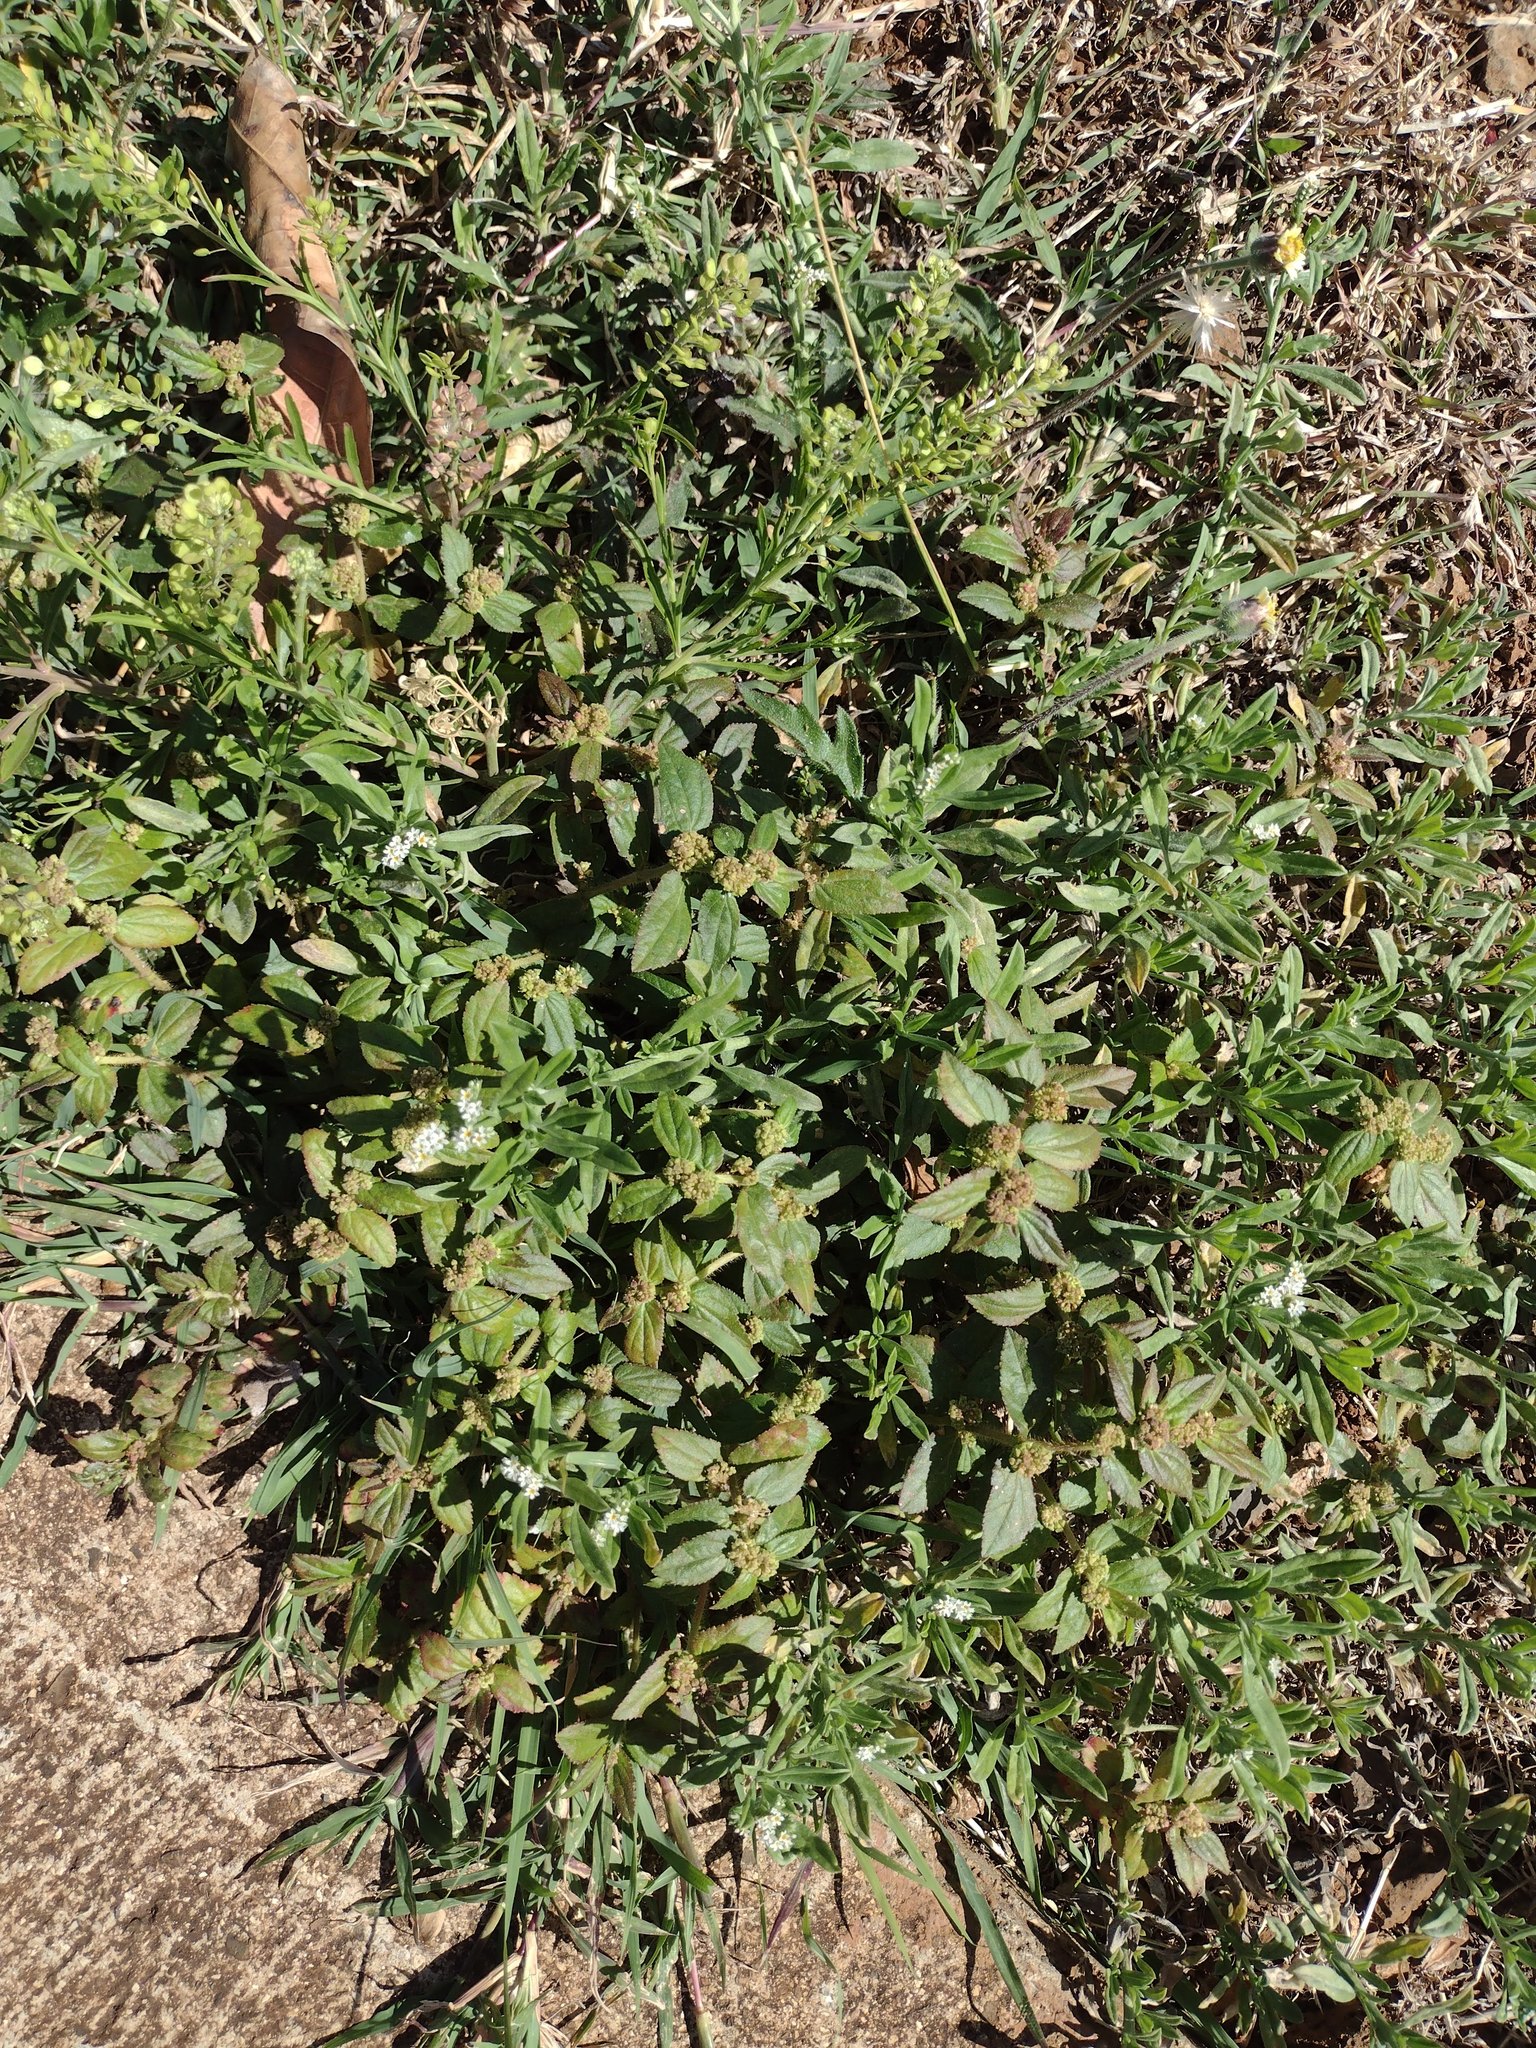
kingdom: Plantae
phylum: Tracheophyta
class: Magnoliopsida
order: Malpighiales
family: Euphorbiaceae
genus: Euphorbia
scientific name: Euphorbia hirta
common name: Pillpod sandmat
